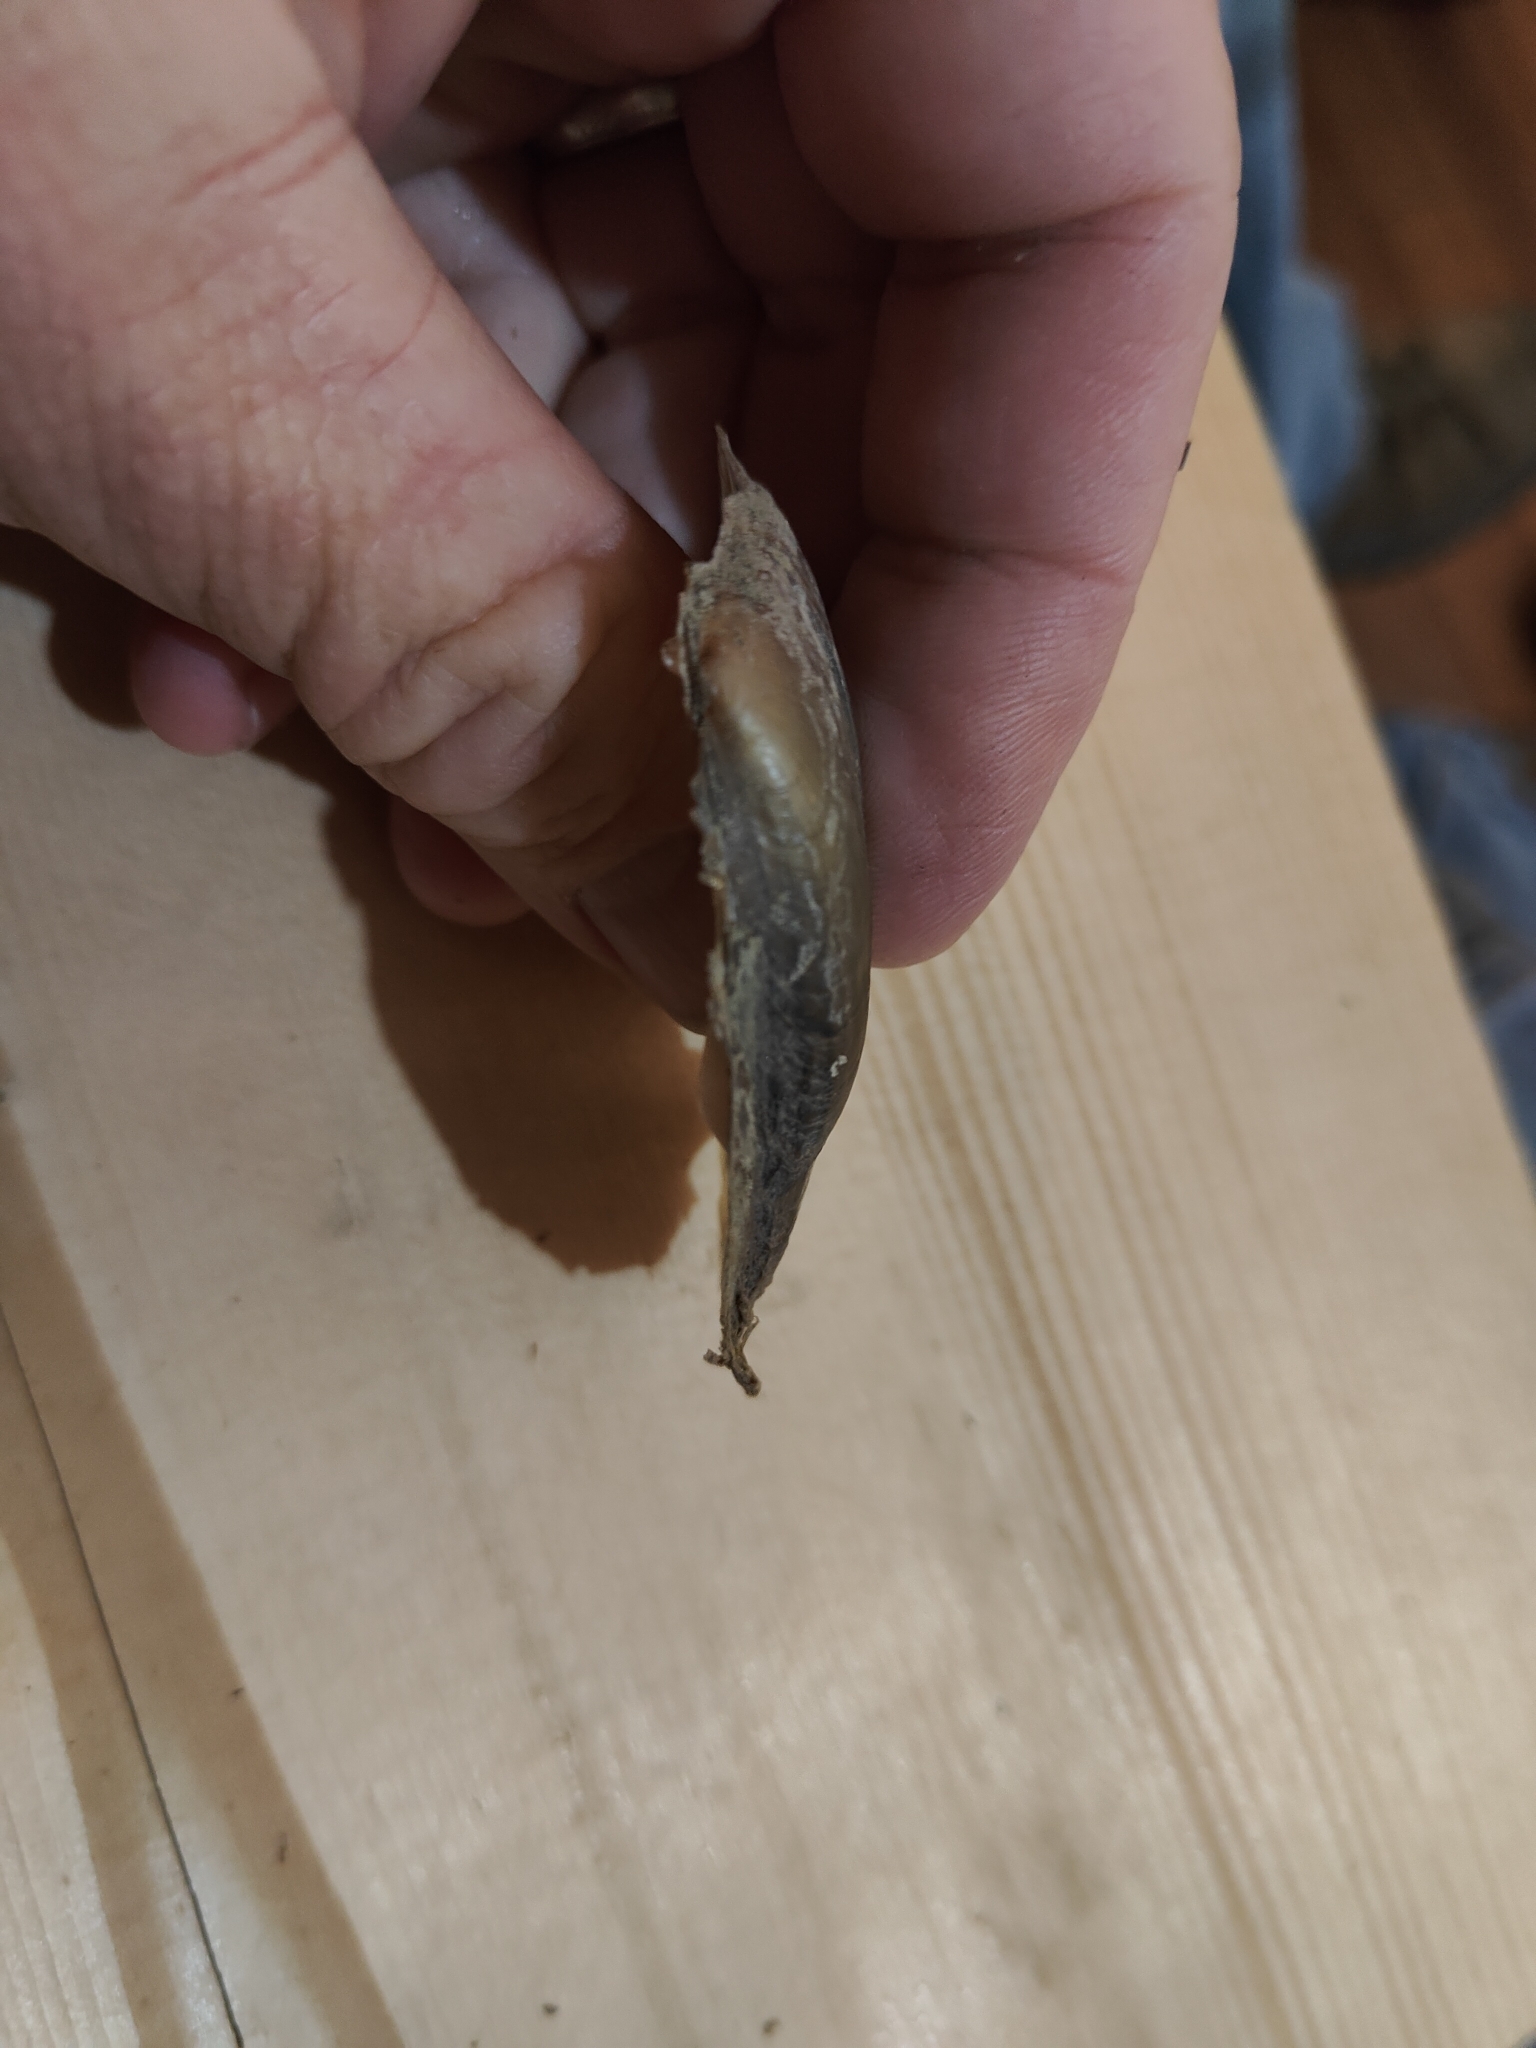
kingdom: Animalia
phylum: Mollusca
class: Bivalvia
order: Unionida
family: Unionidae
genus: Potamilus
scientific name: Potamilus fragilis
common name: Fragile papershell
